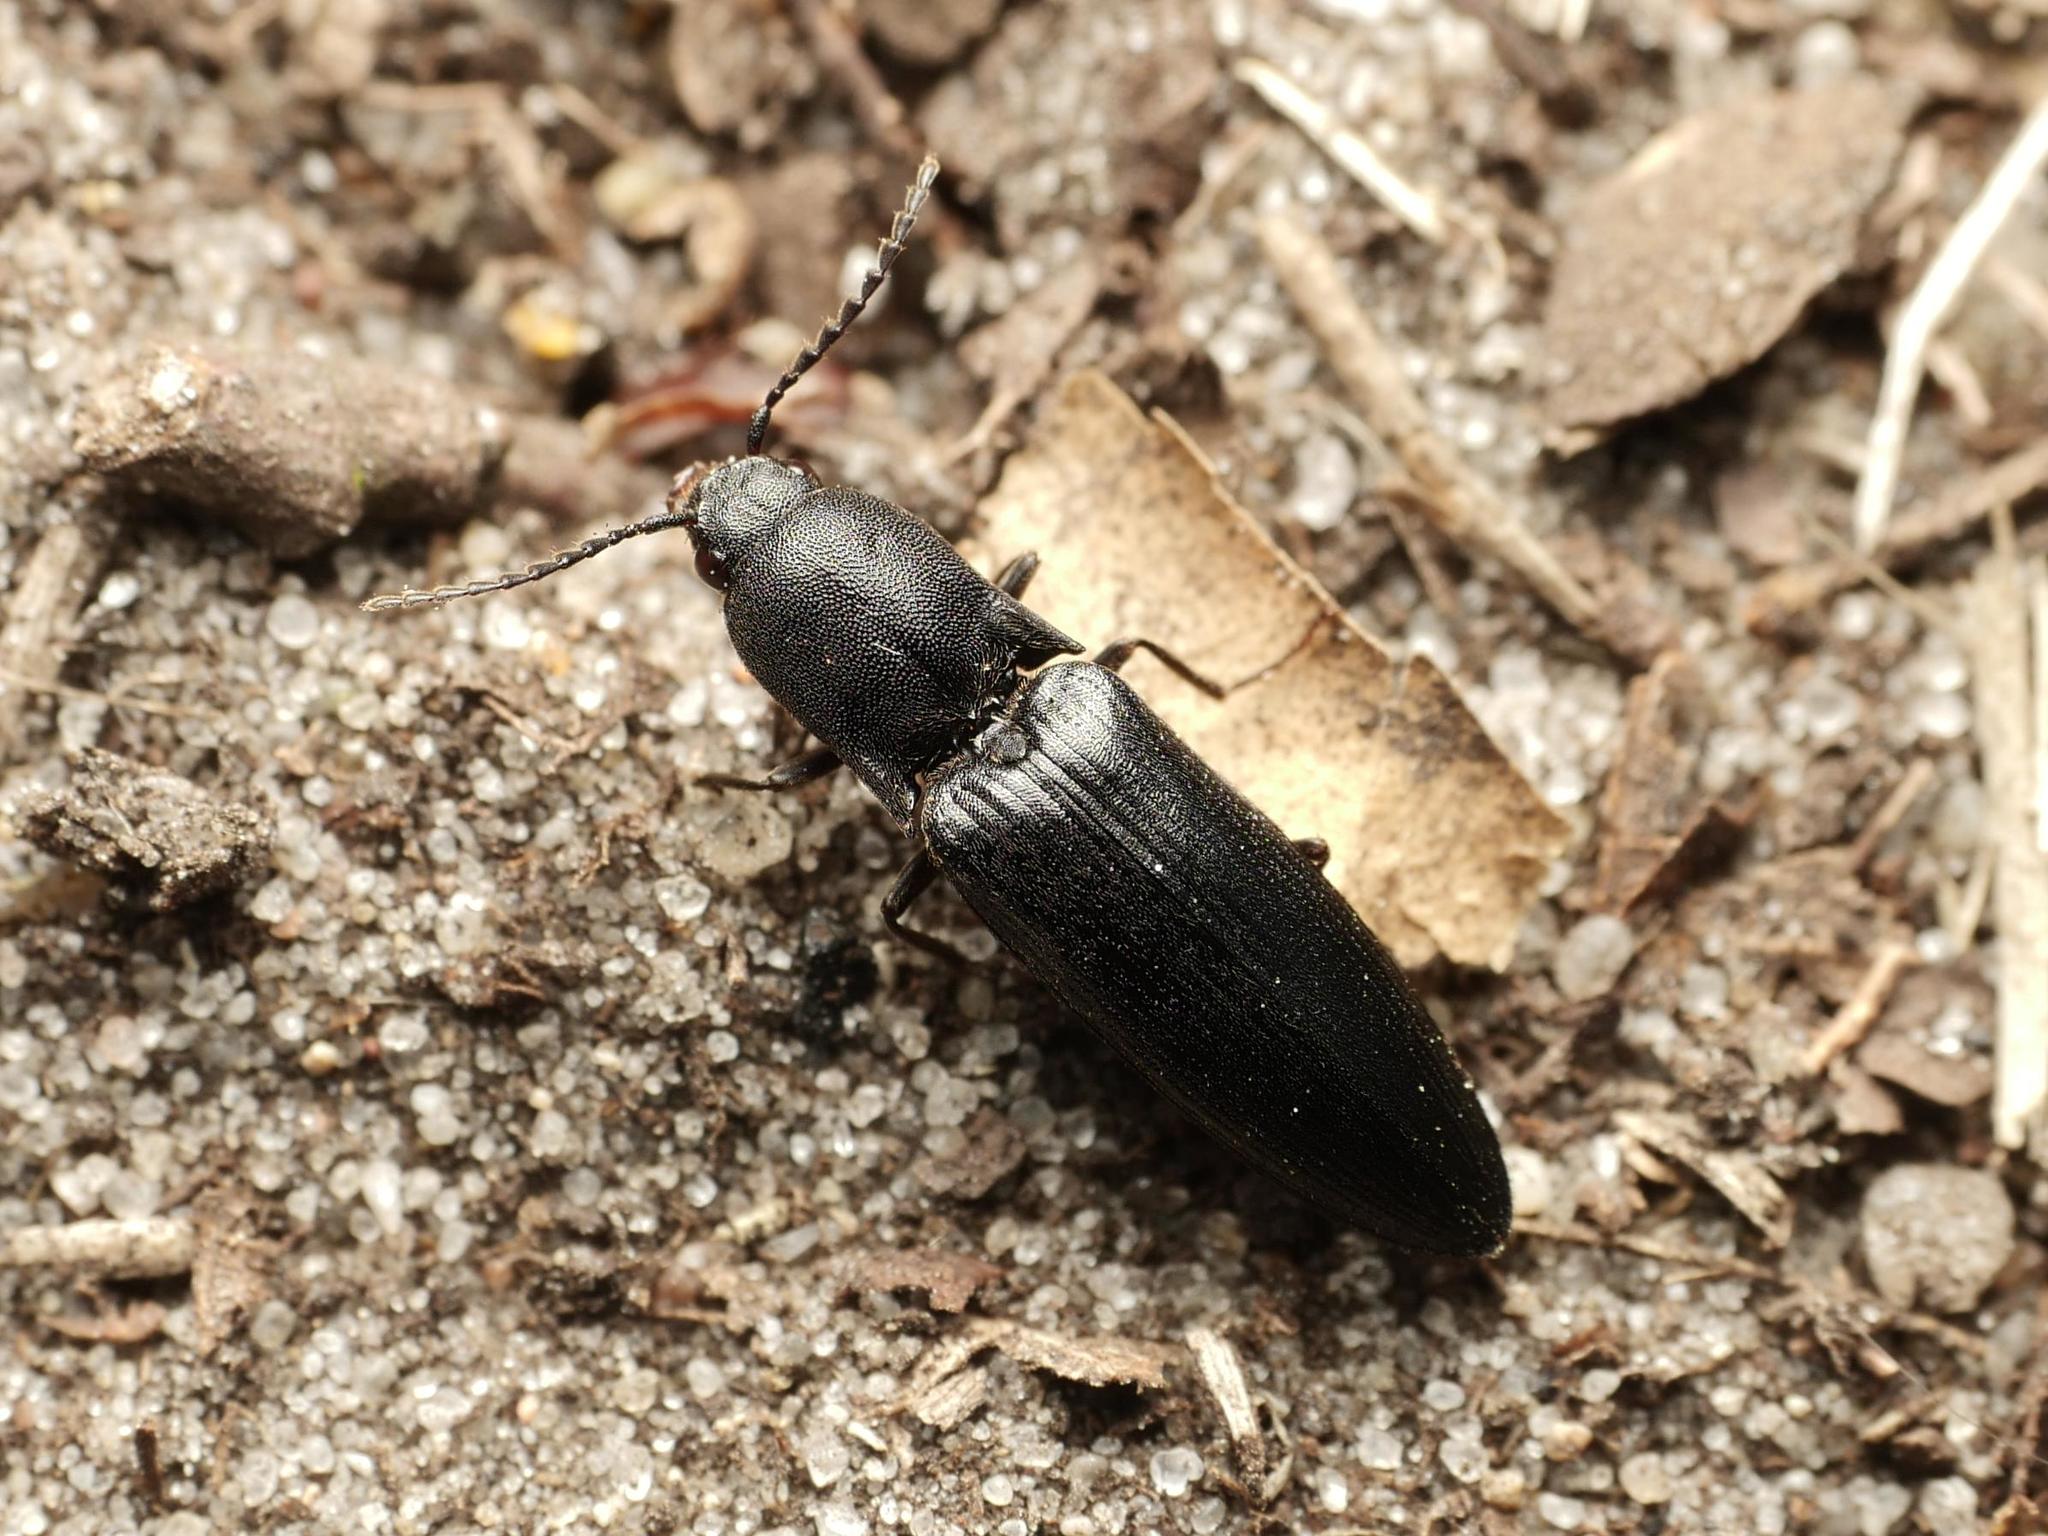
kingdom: Animalia
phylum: Arthropoda
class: Insecta
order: Coleoptera
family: Elateridae
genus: Ectinus
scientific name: Ectinus aterrimus
